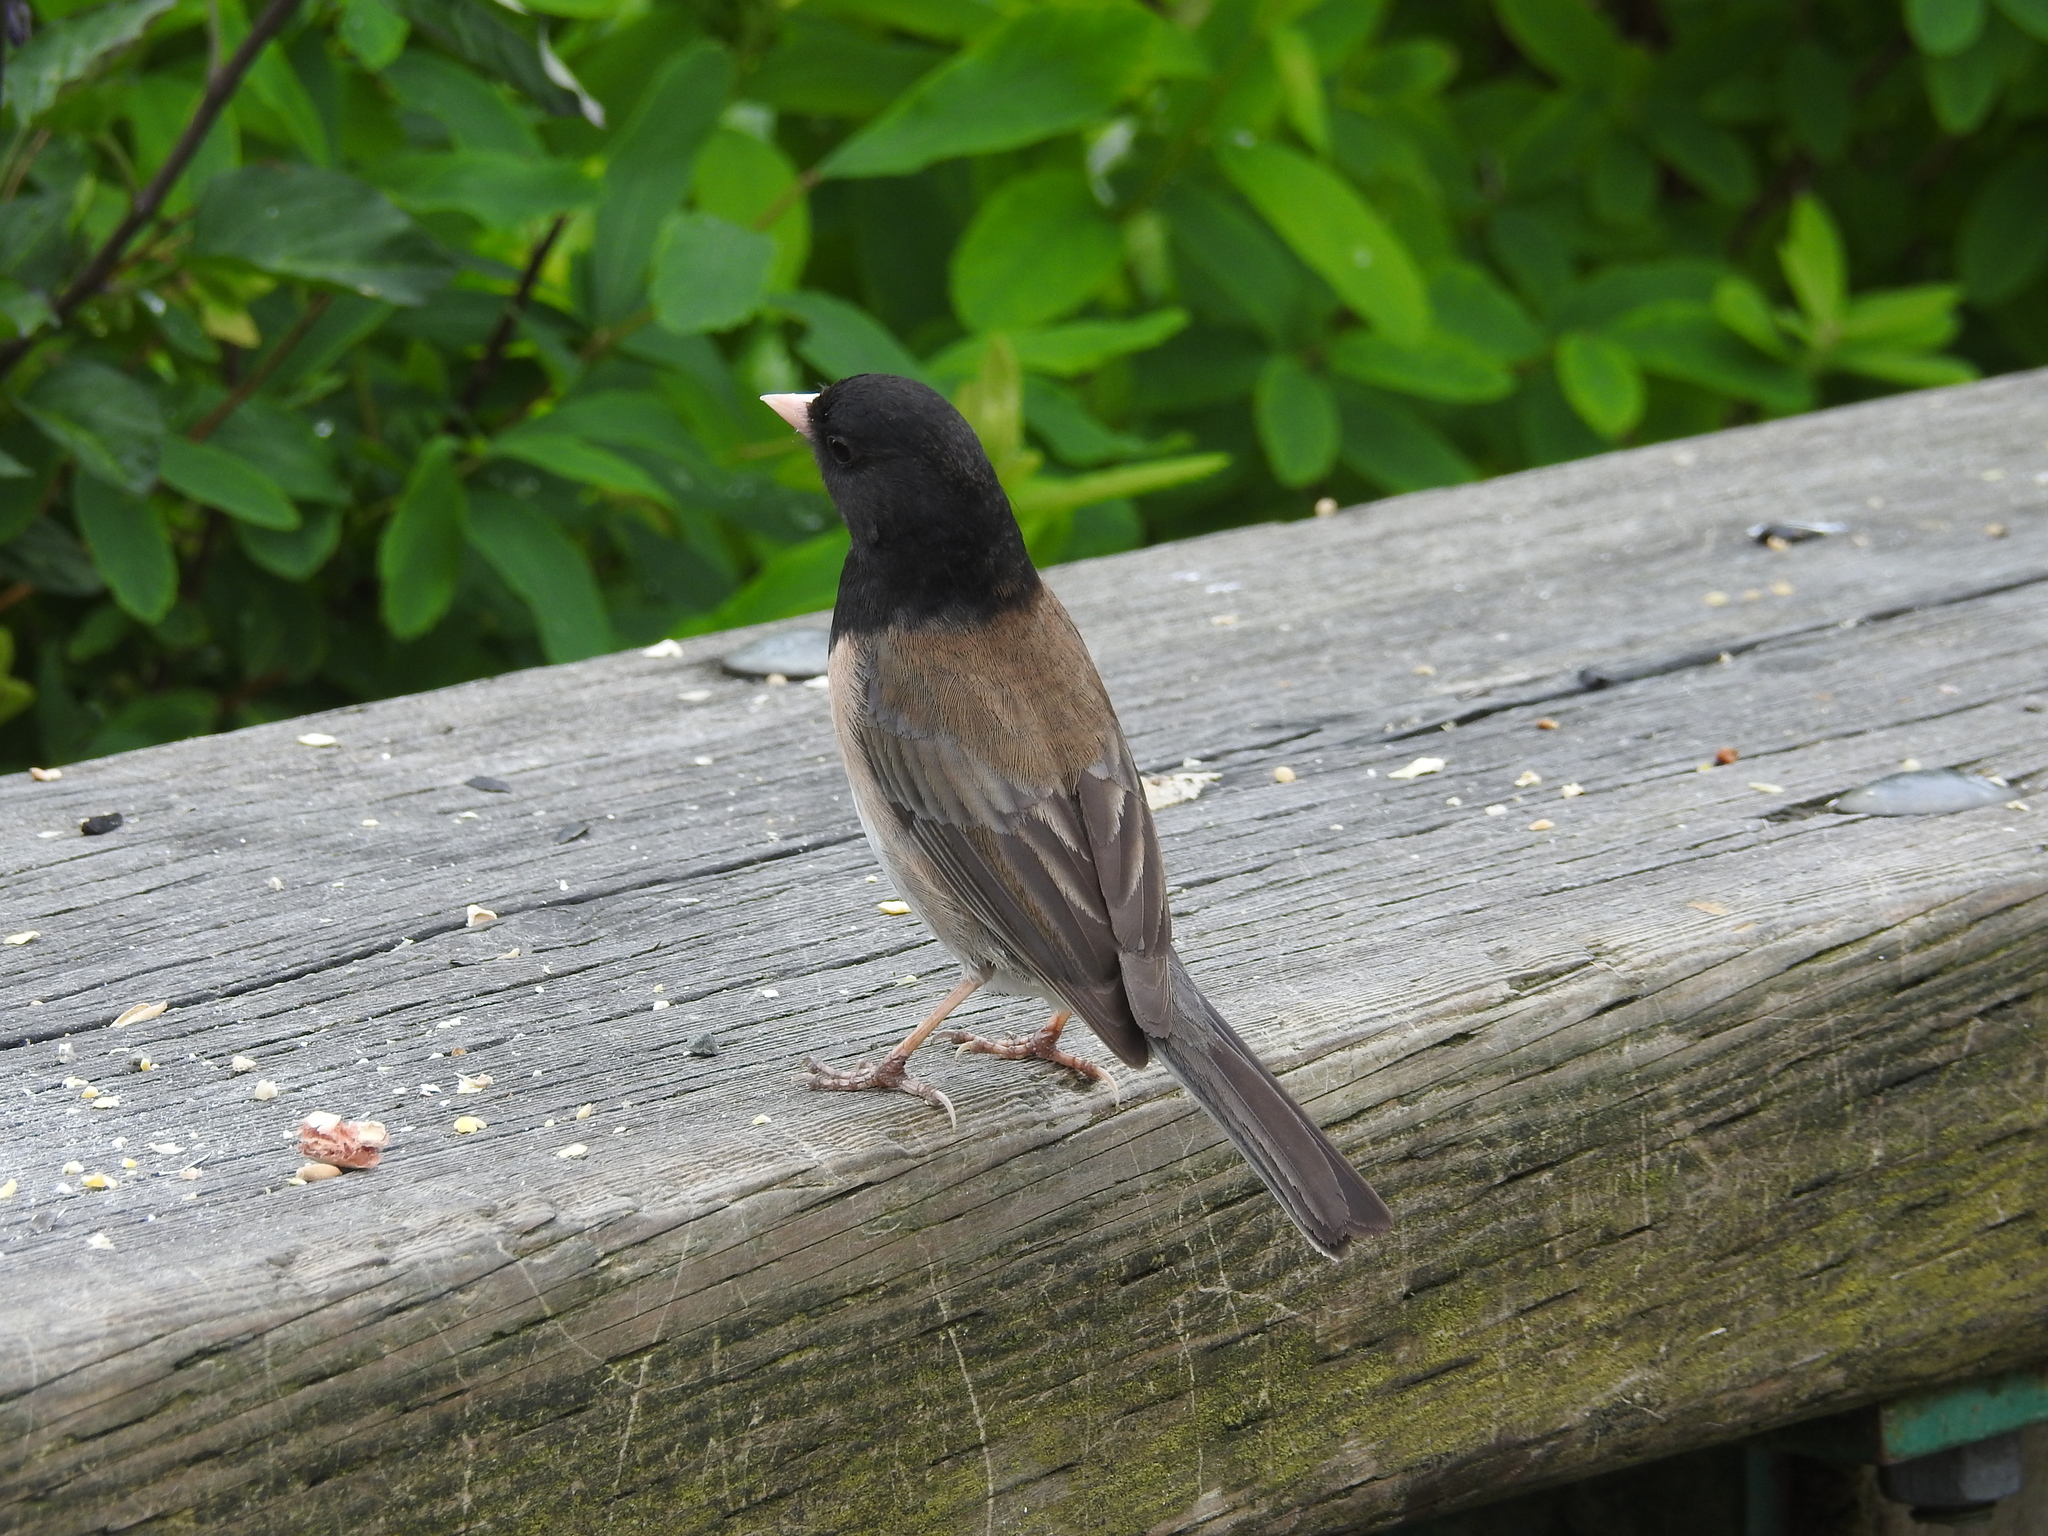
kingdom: Animalia
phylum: Chordata
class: Aves
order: Passeriformes
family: Passerellidae
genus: Junco
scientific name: Junco hyemalis
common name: Dark-eyed junco
